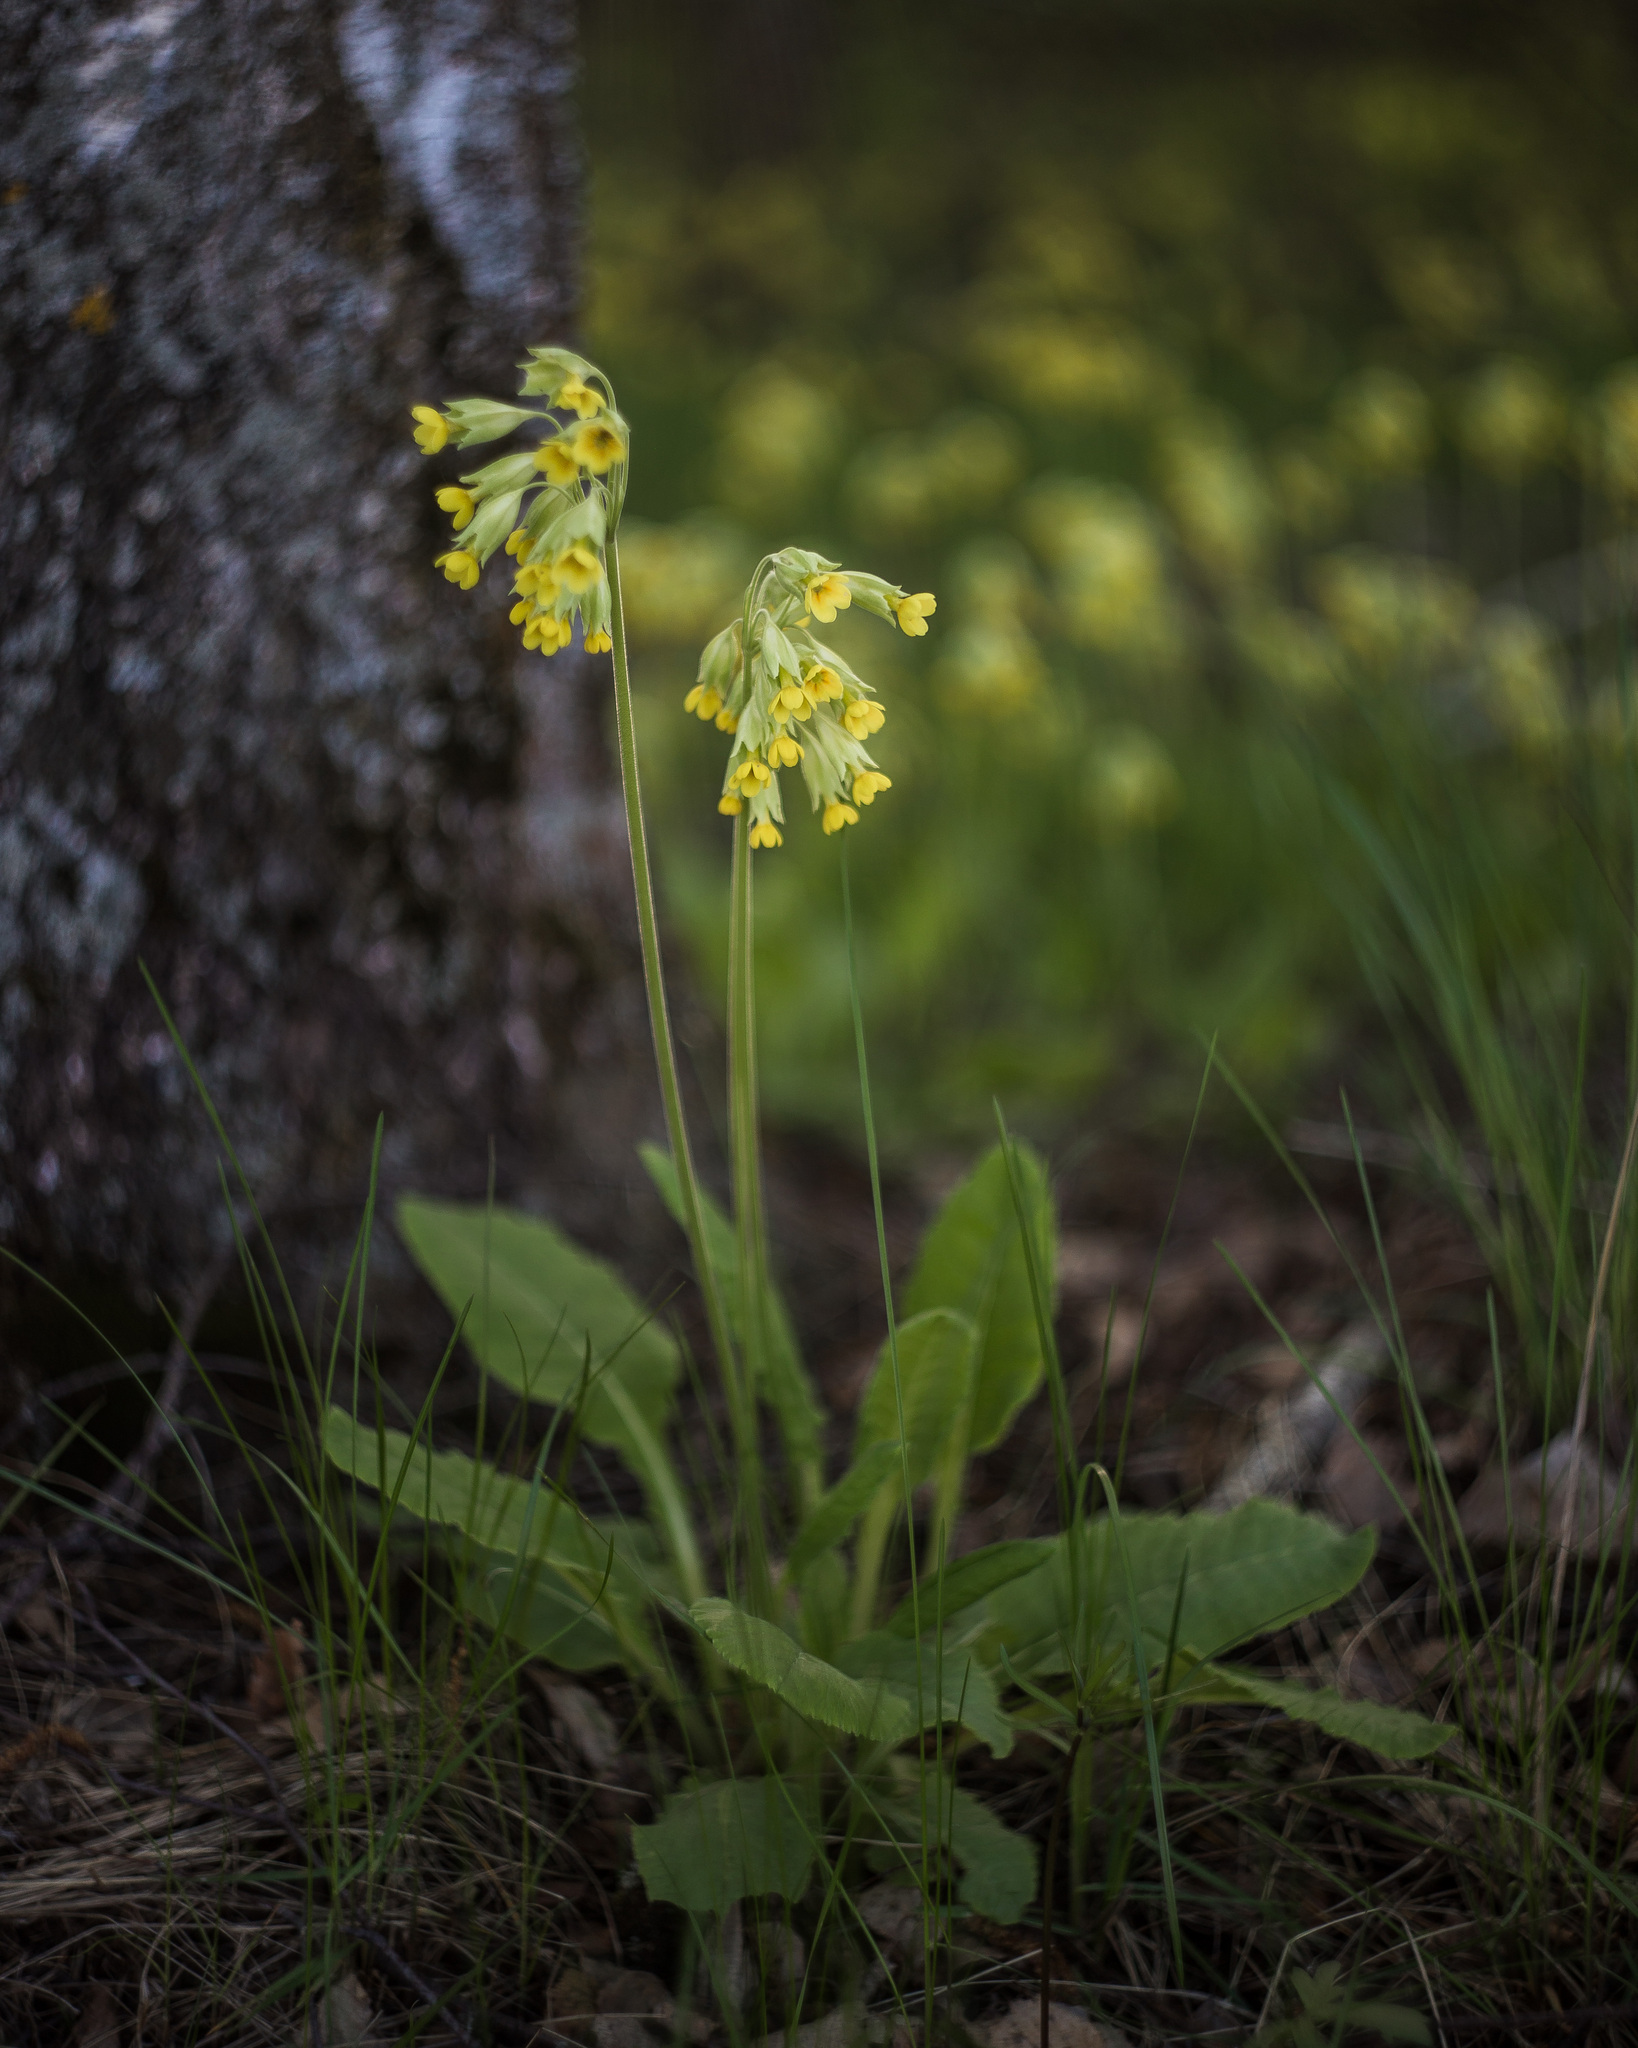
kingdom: Plantae
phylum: Tracheophyta
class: Magnoliopsida
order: Ericales
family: Primulaceae
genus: Primula
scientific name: Primula veris
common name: Cowslip
